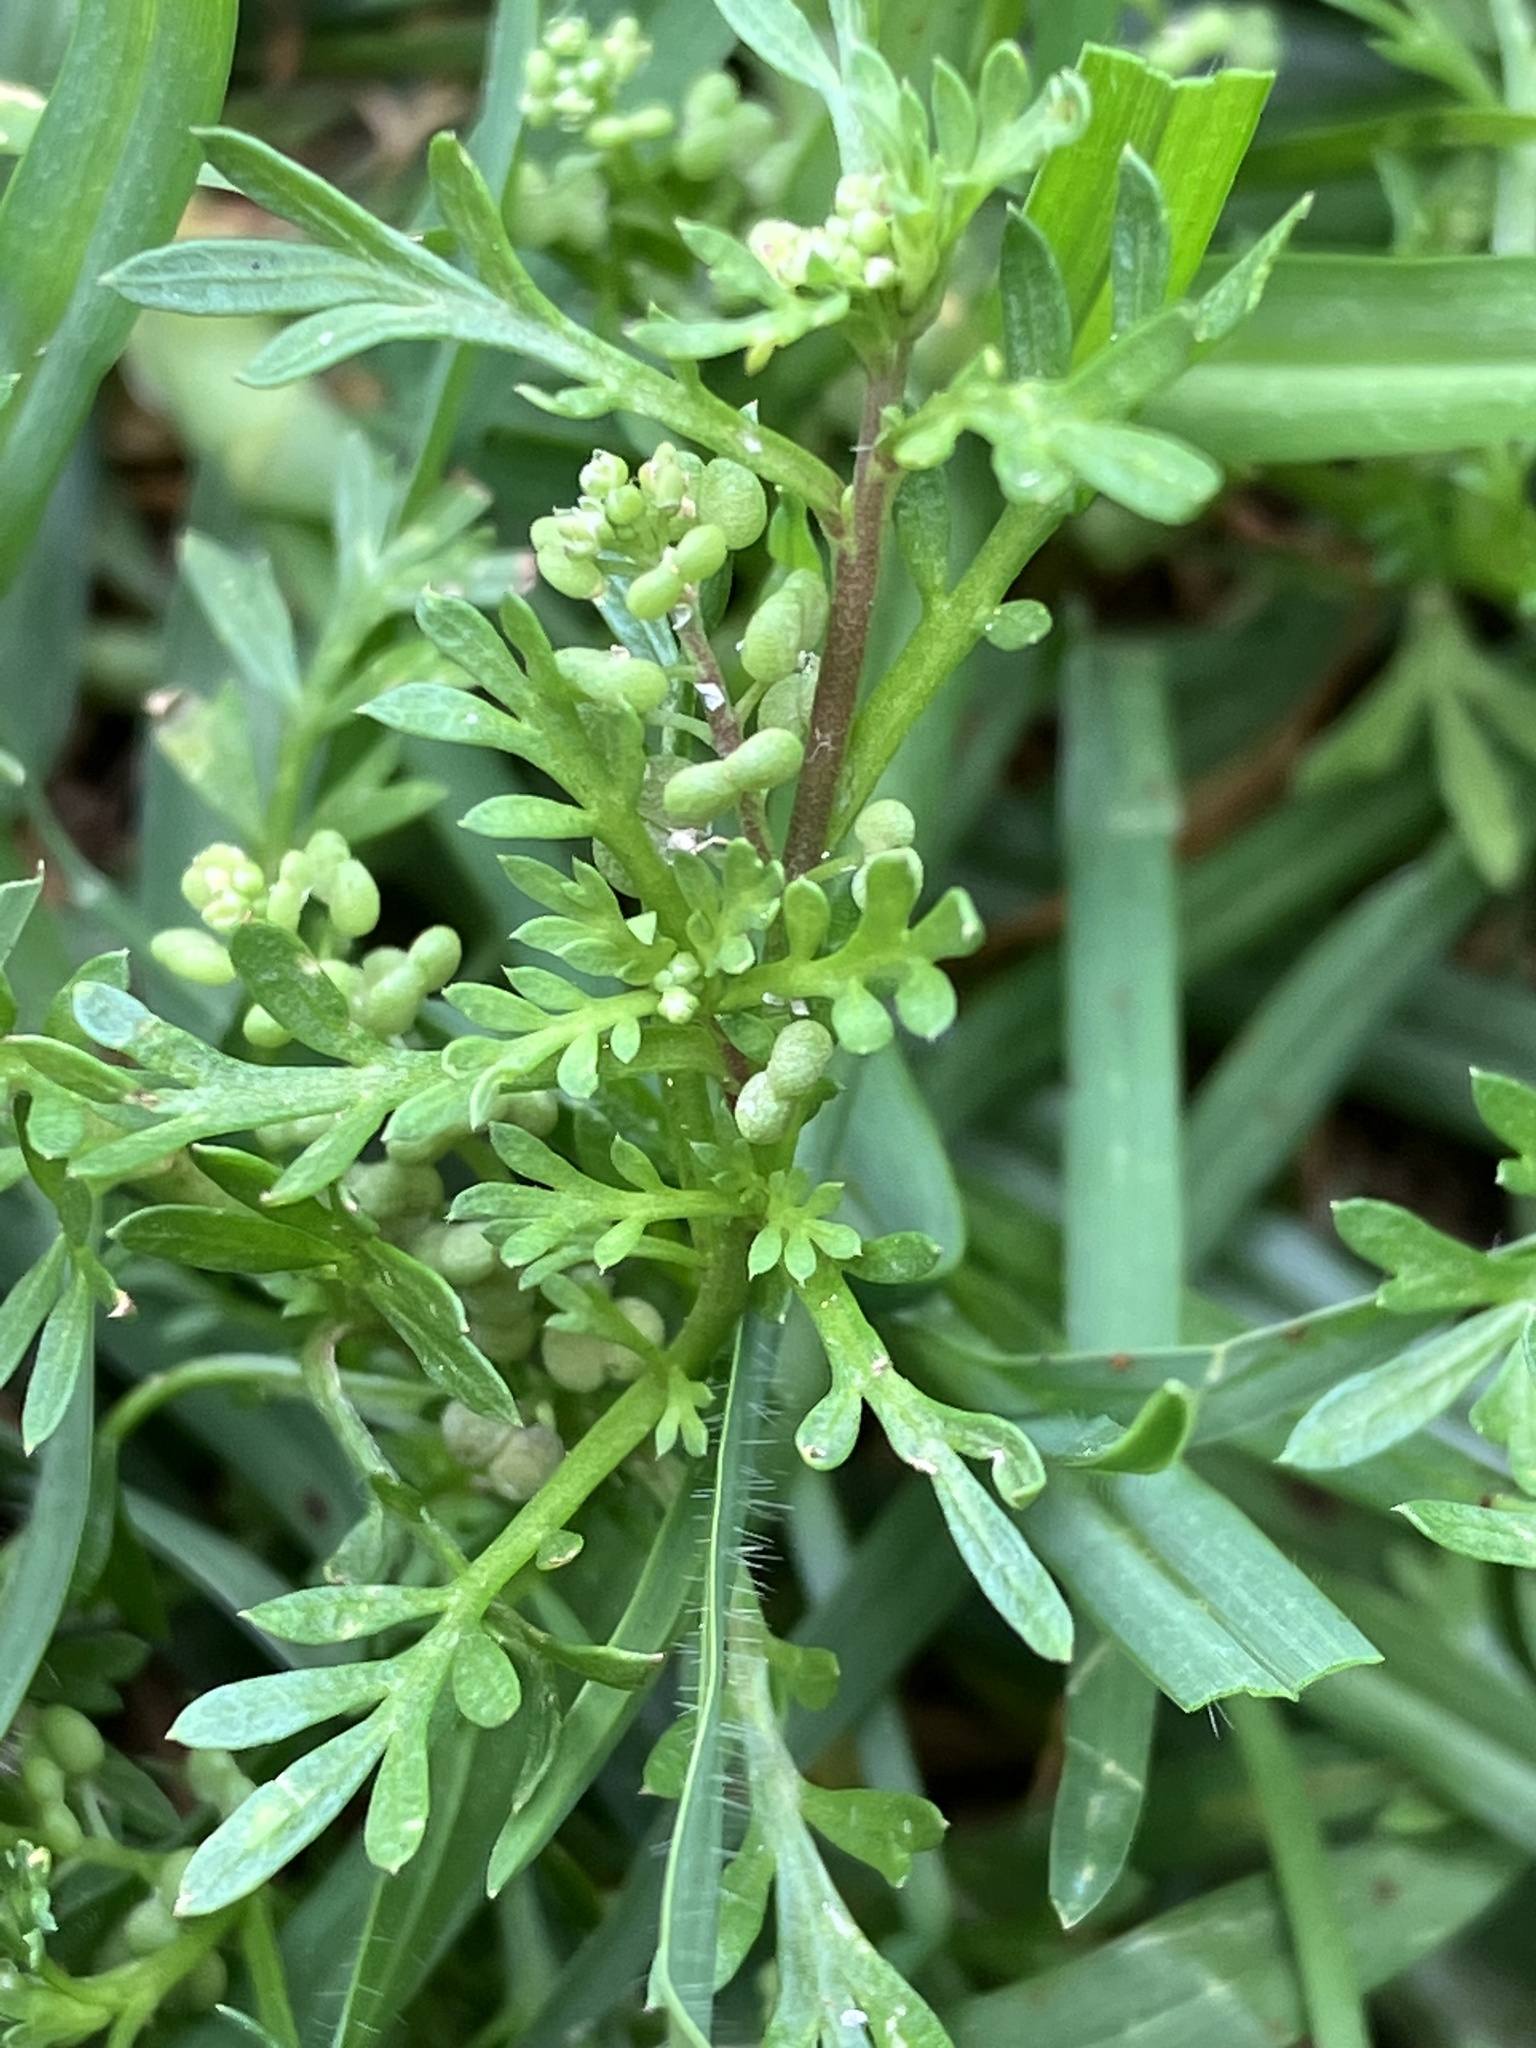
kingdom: Plantae
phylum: Tracheophyta
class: Magnoliopsida
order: Brassicales
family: Brassicaceae
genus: Lepidium
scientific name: Lepidium didymum
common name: Lesser swinecress
